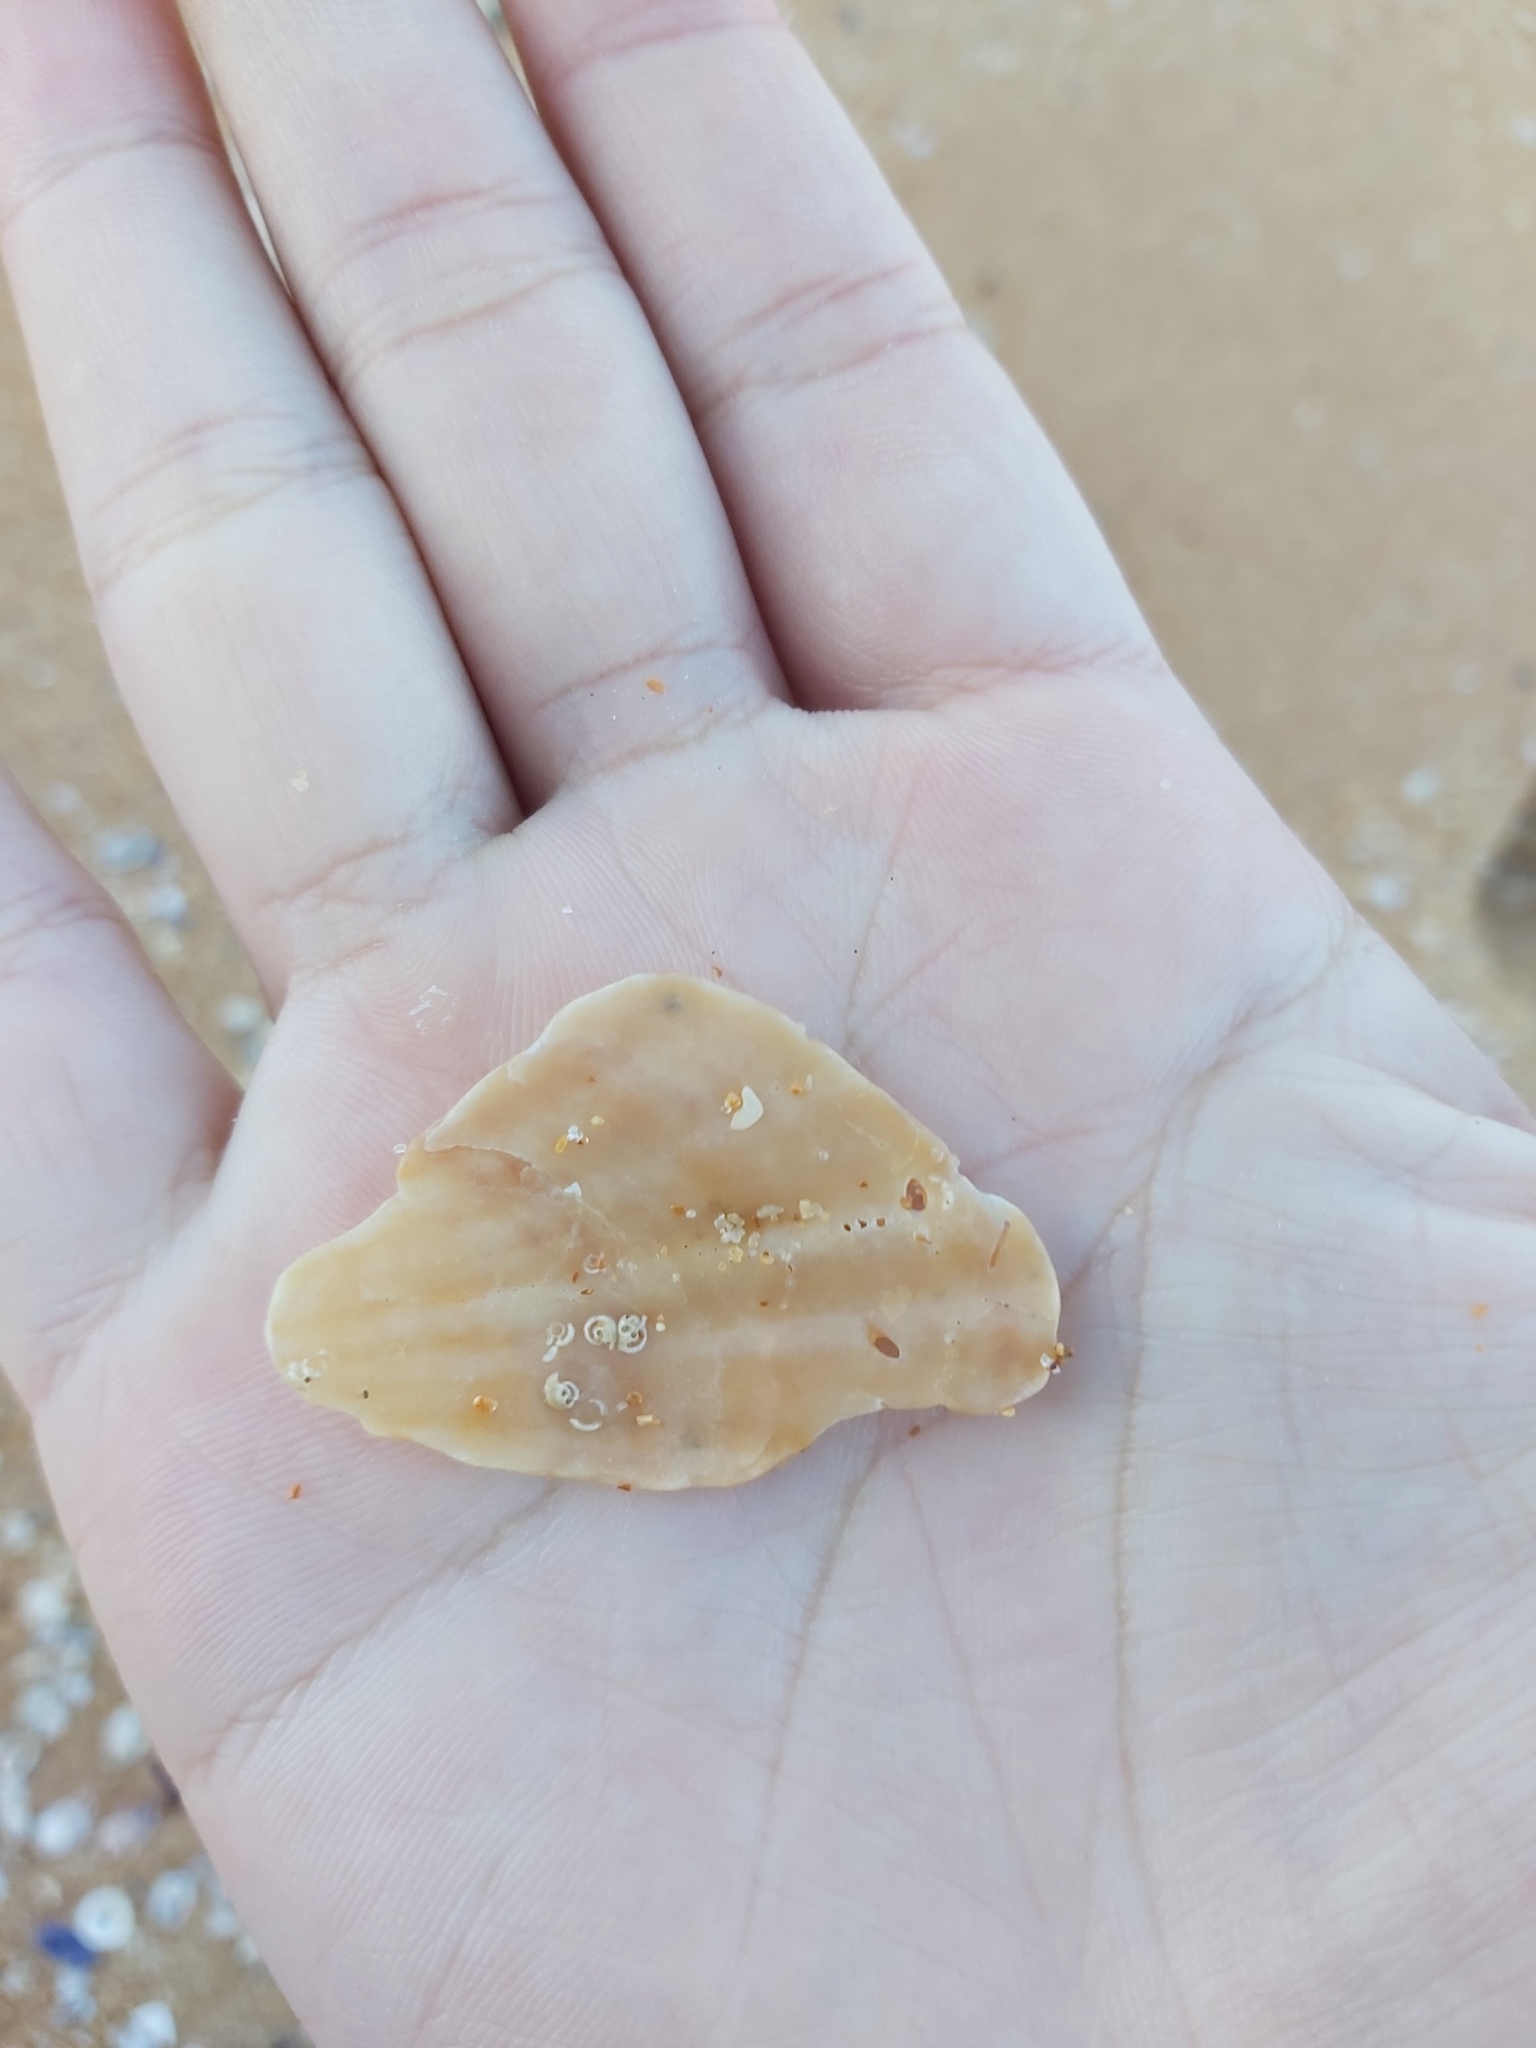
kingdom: Animalia
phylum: Mollusca
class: Bivalvia
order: Pectinida
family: Pectinidae
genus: Scaeochlamys
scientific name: Scaeochlamys livida
